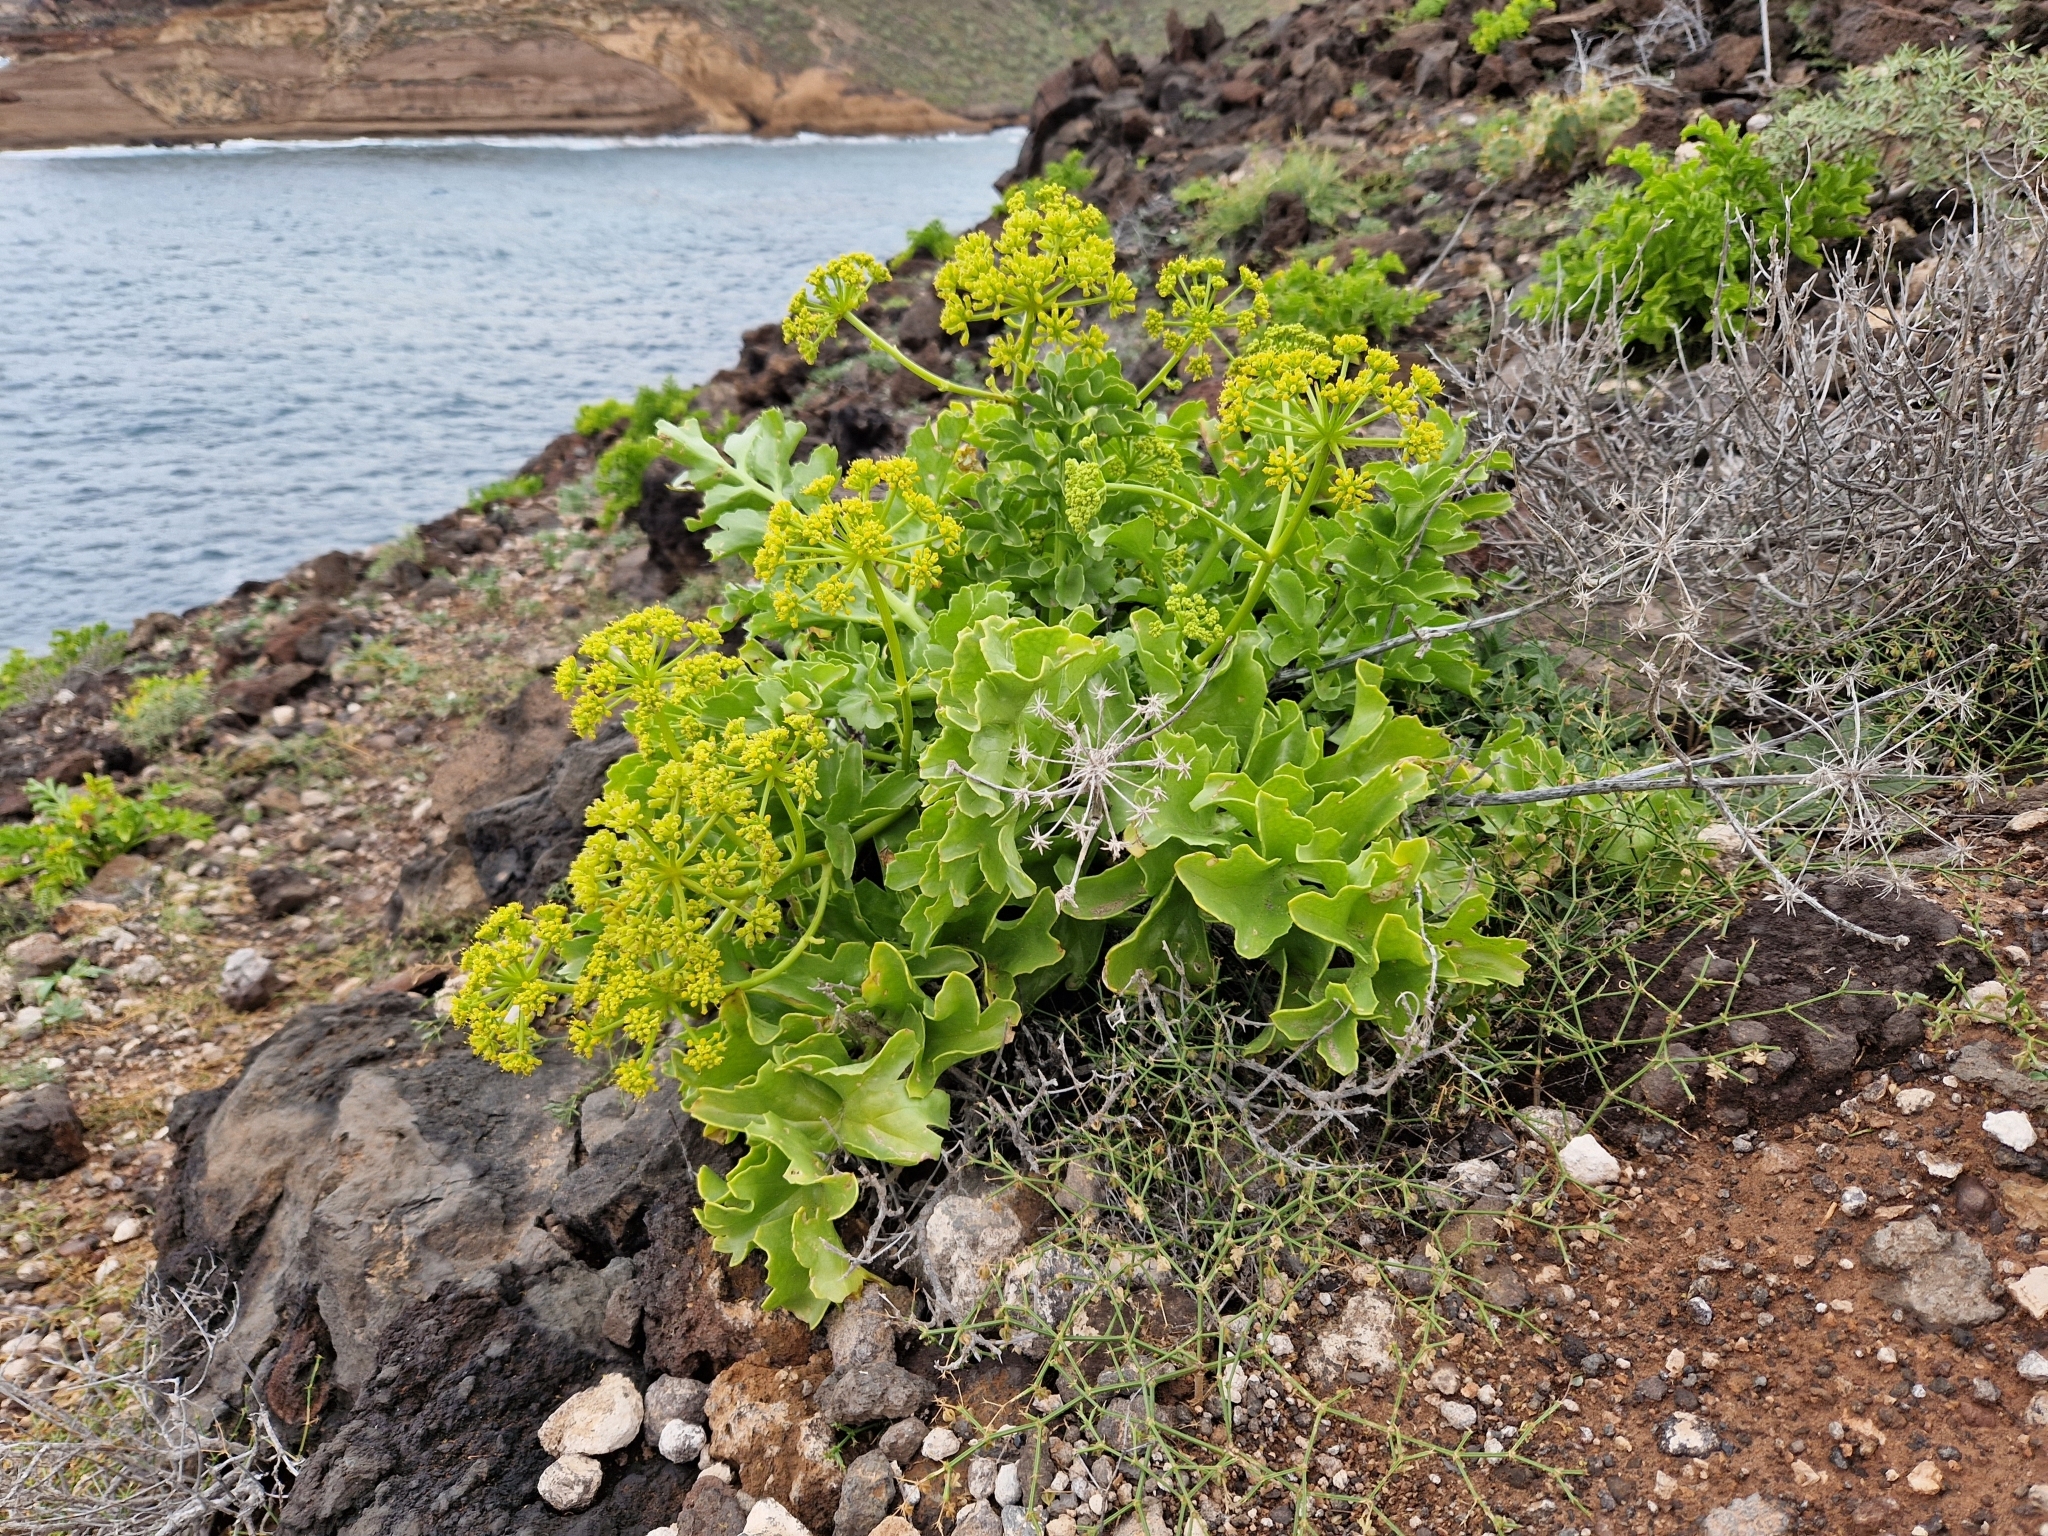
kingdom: Plantae
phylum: Tracheophyta
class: Magnoliopsida
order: Apiales
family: Apiaceae
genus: Astydamia
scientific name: Astydamia latifolia
